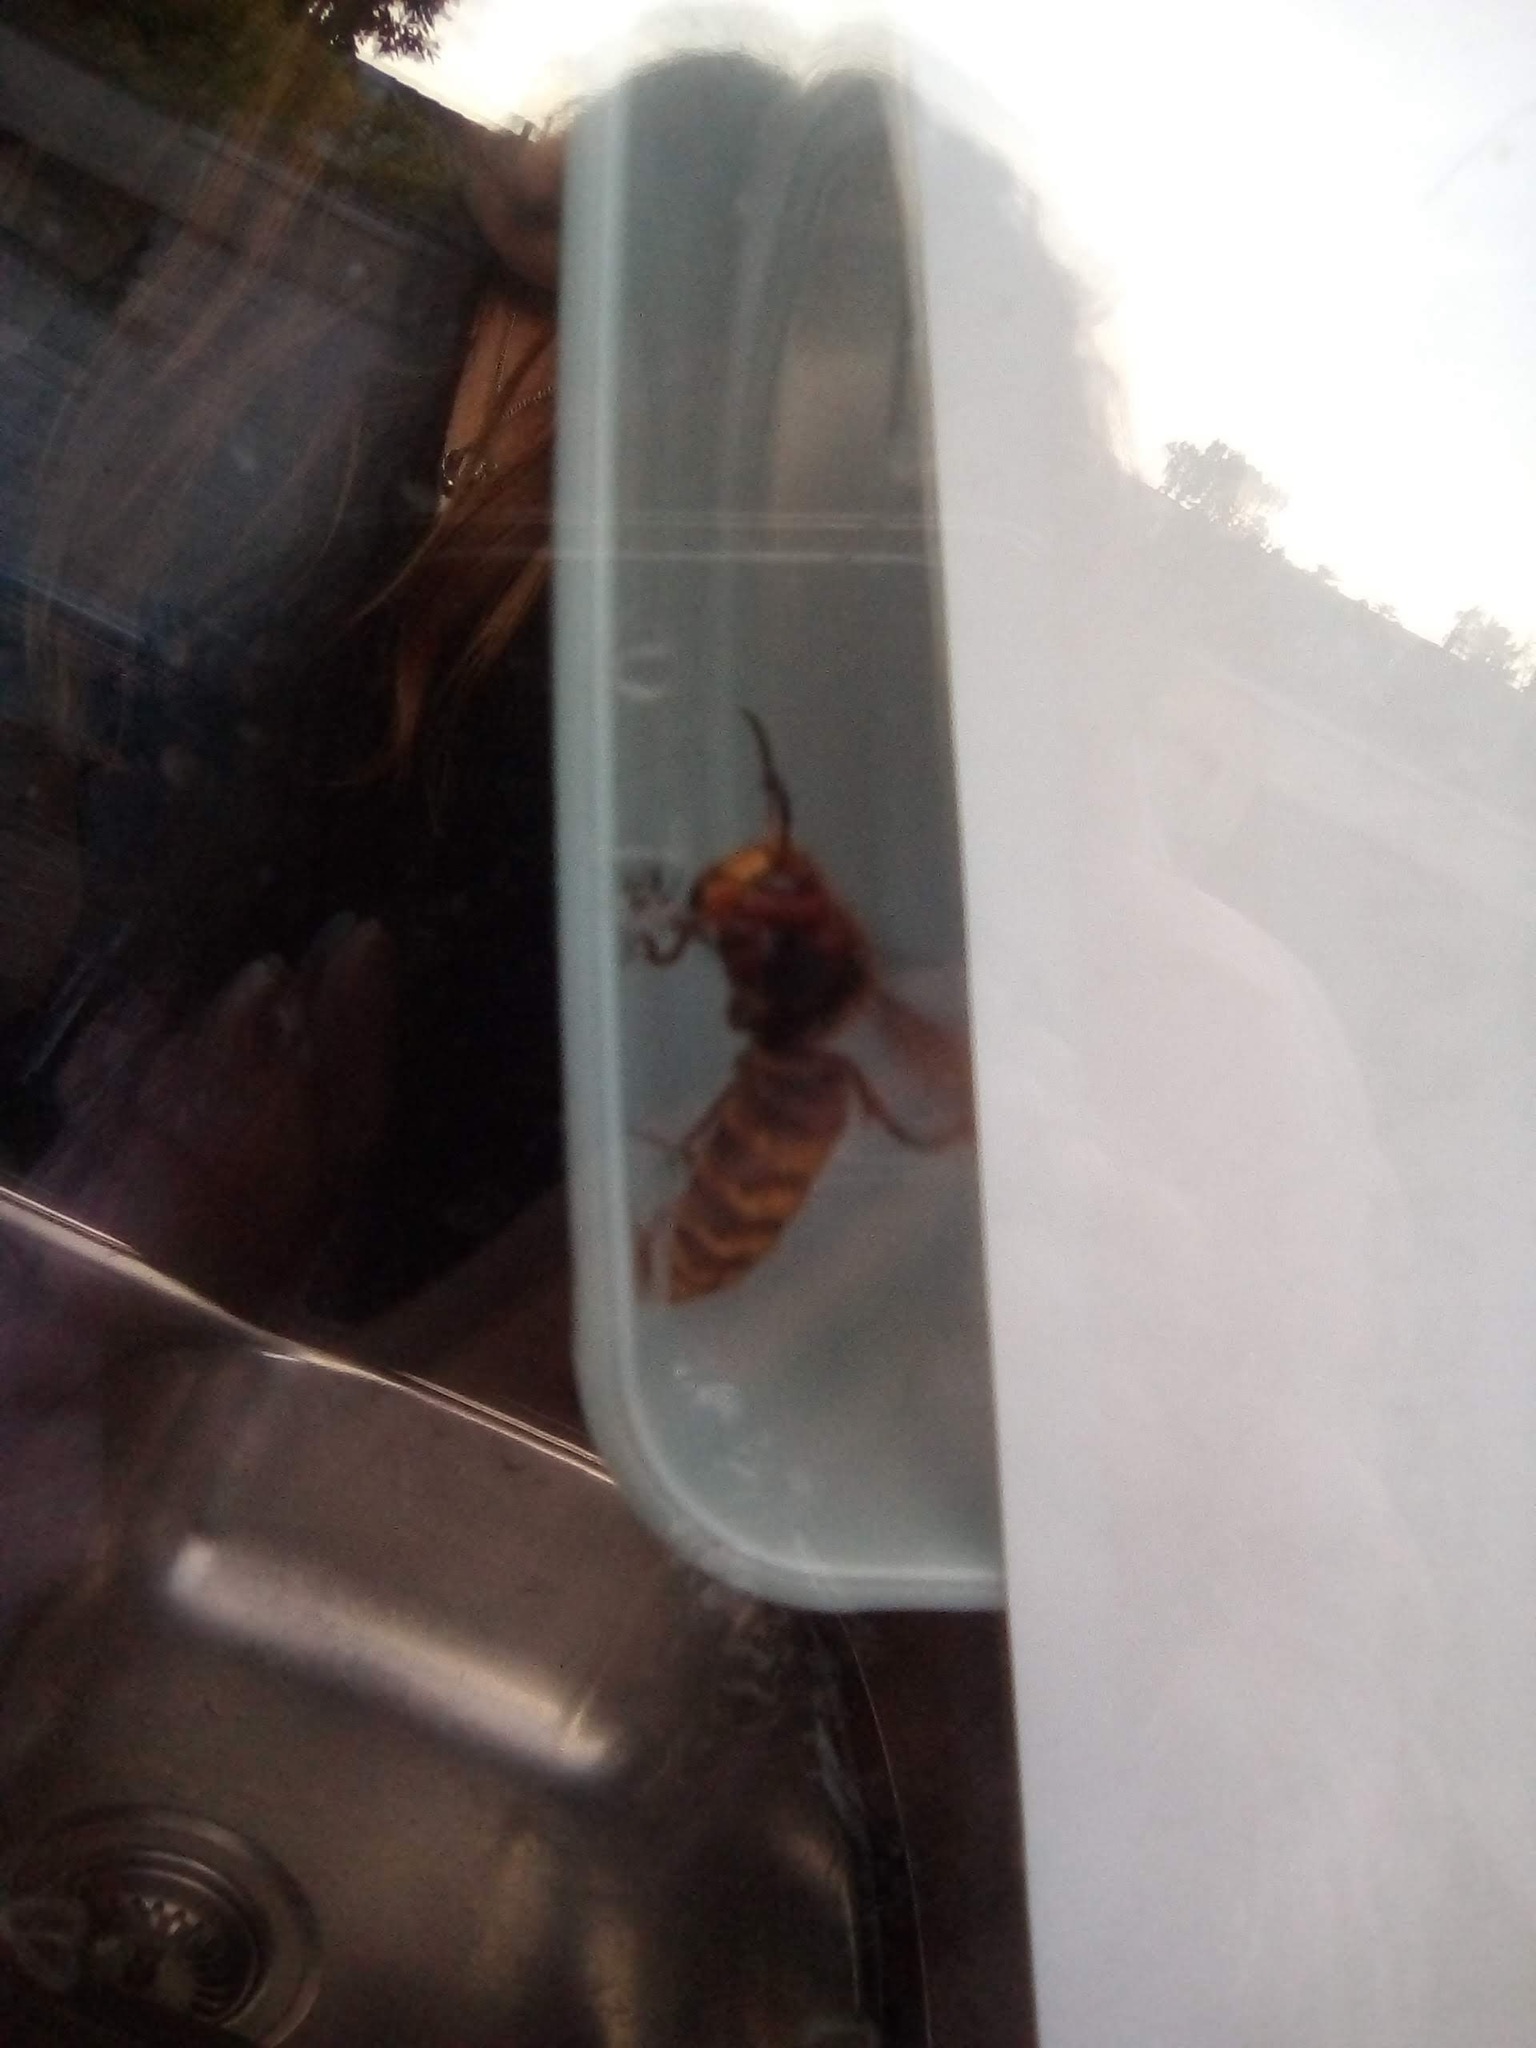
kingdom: Animalia
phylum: Arthropoda
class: Insecta
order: Hymenoptera
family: Vespidae
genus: Vespa
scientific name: Vespa crabro
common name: Hornet
